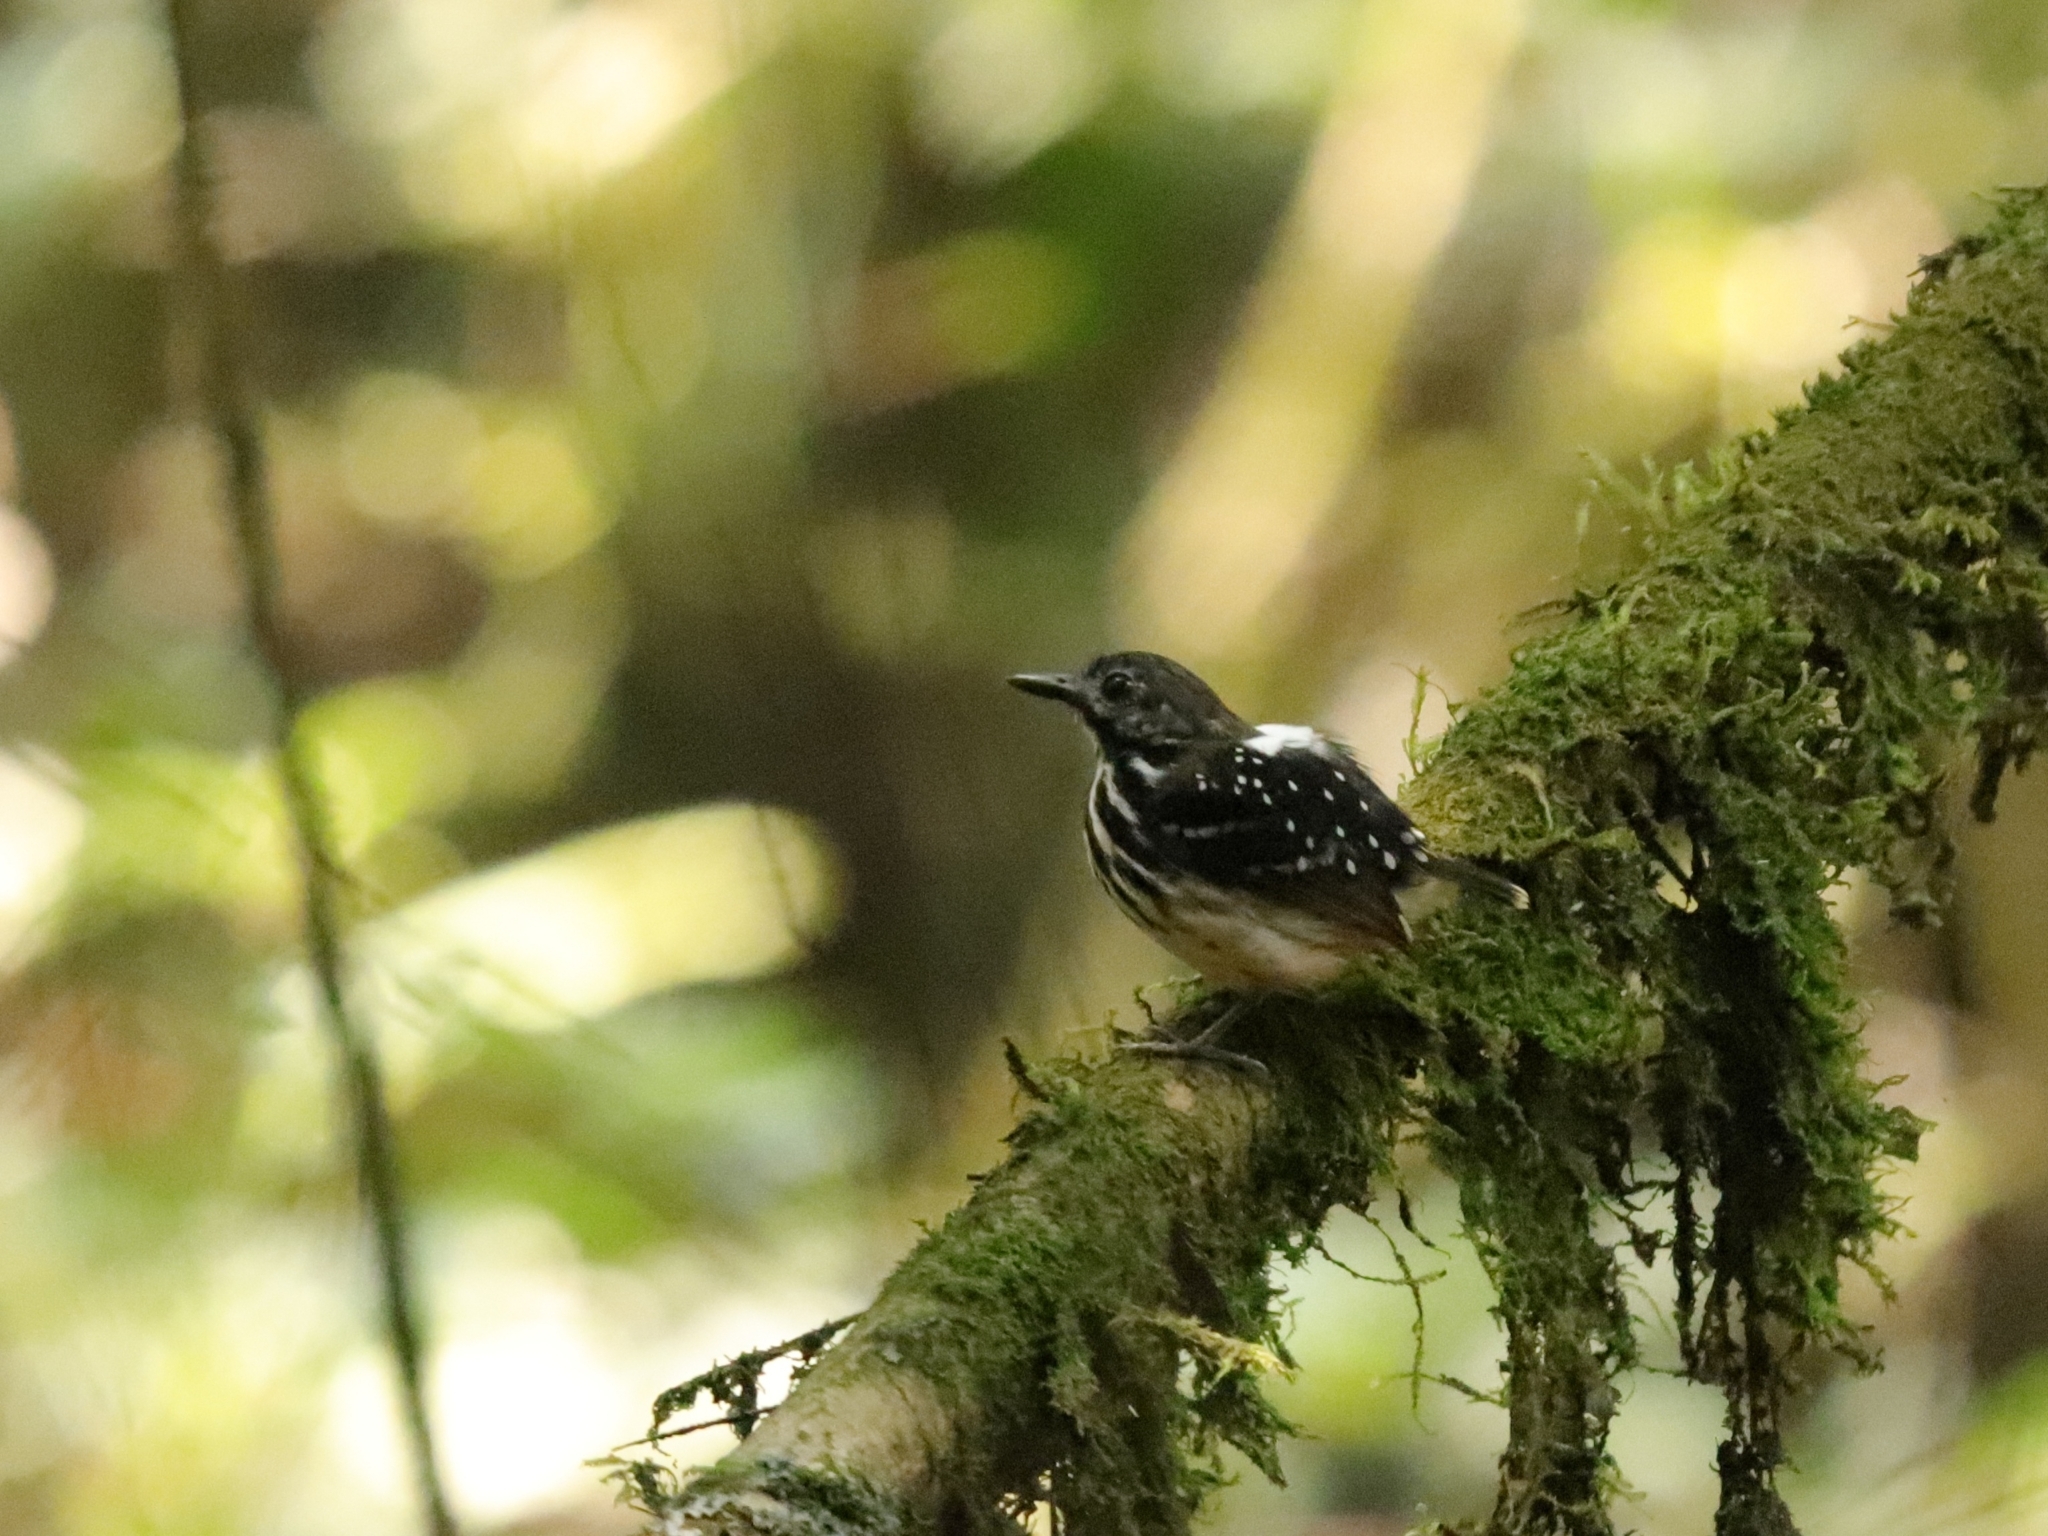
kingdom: Animalia
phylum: Chordata
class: Aves
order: Passeriformes
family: Thamnophilidae
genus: Hylophylax
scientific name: Hylophylax punctulatus
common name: Dot-backed antbird
